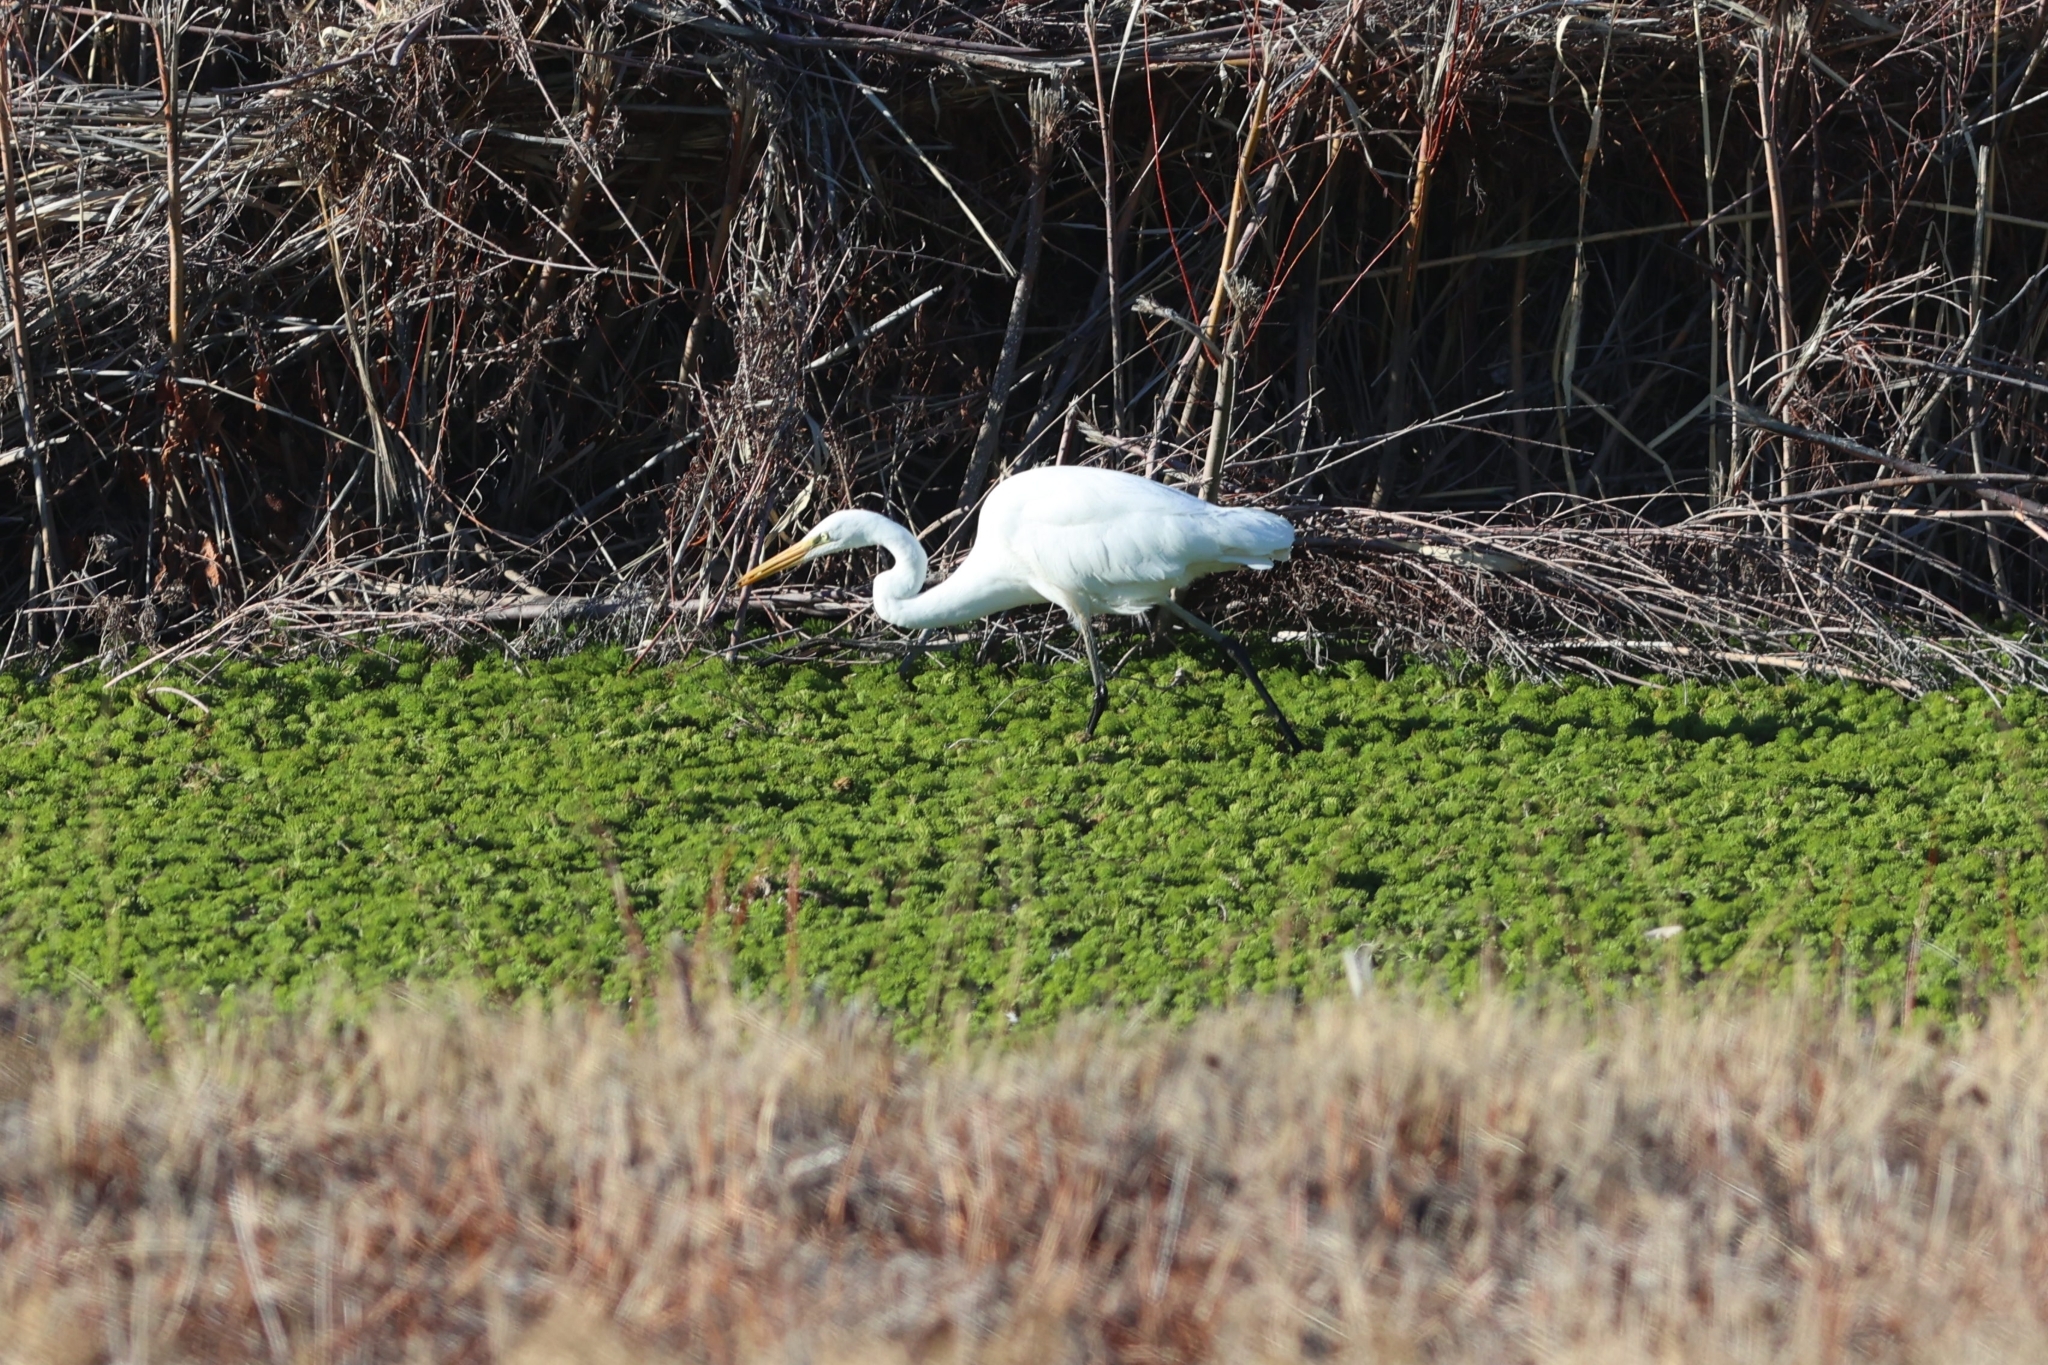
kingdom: Animalia
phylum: Chordata
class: Aves
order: Pelecaniformes
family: Ardeidae
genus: Ardea
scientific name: Ardea alba
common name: Great egret
